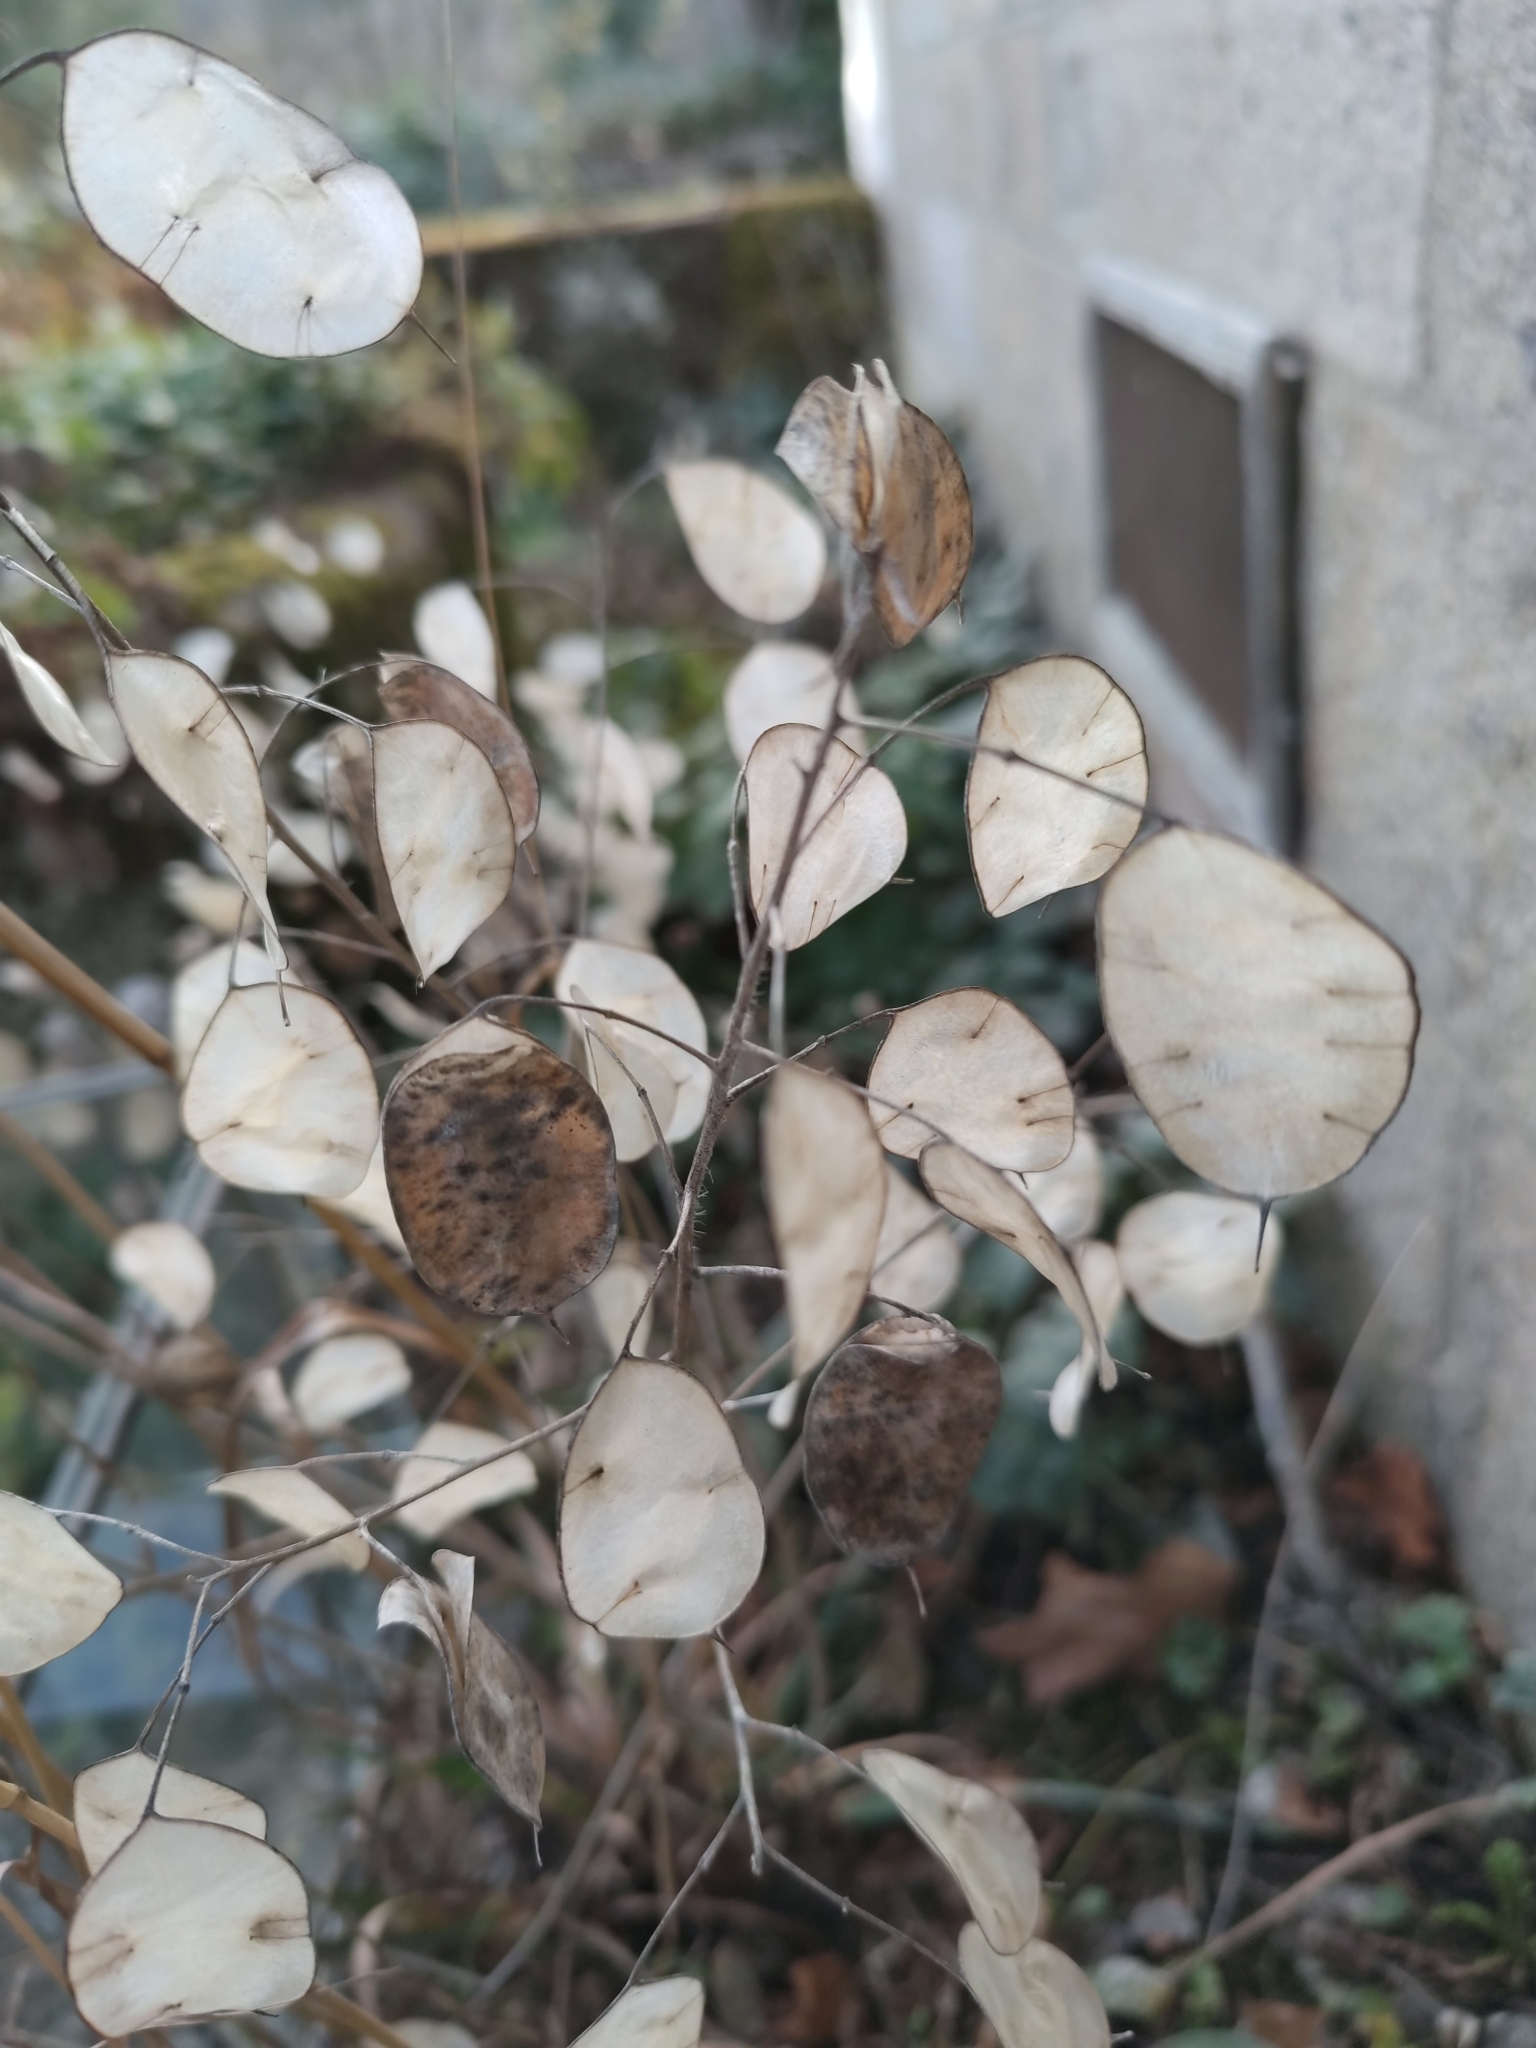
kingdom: Plantae
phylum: Tracheophyta
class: Magnoliopsida
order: Brassicales
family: Brassicaceae
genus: Lunaria
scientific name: Lunaria annua
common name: Honesty
